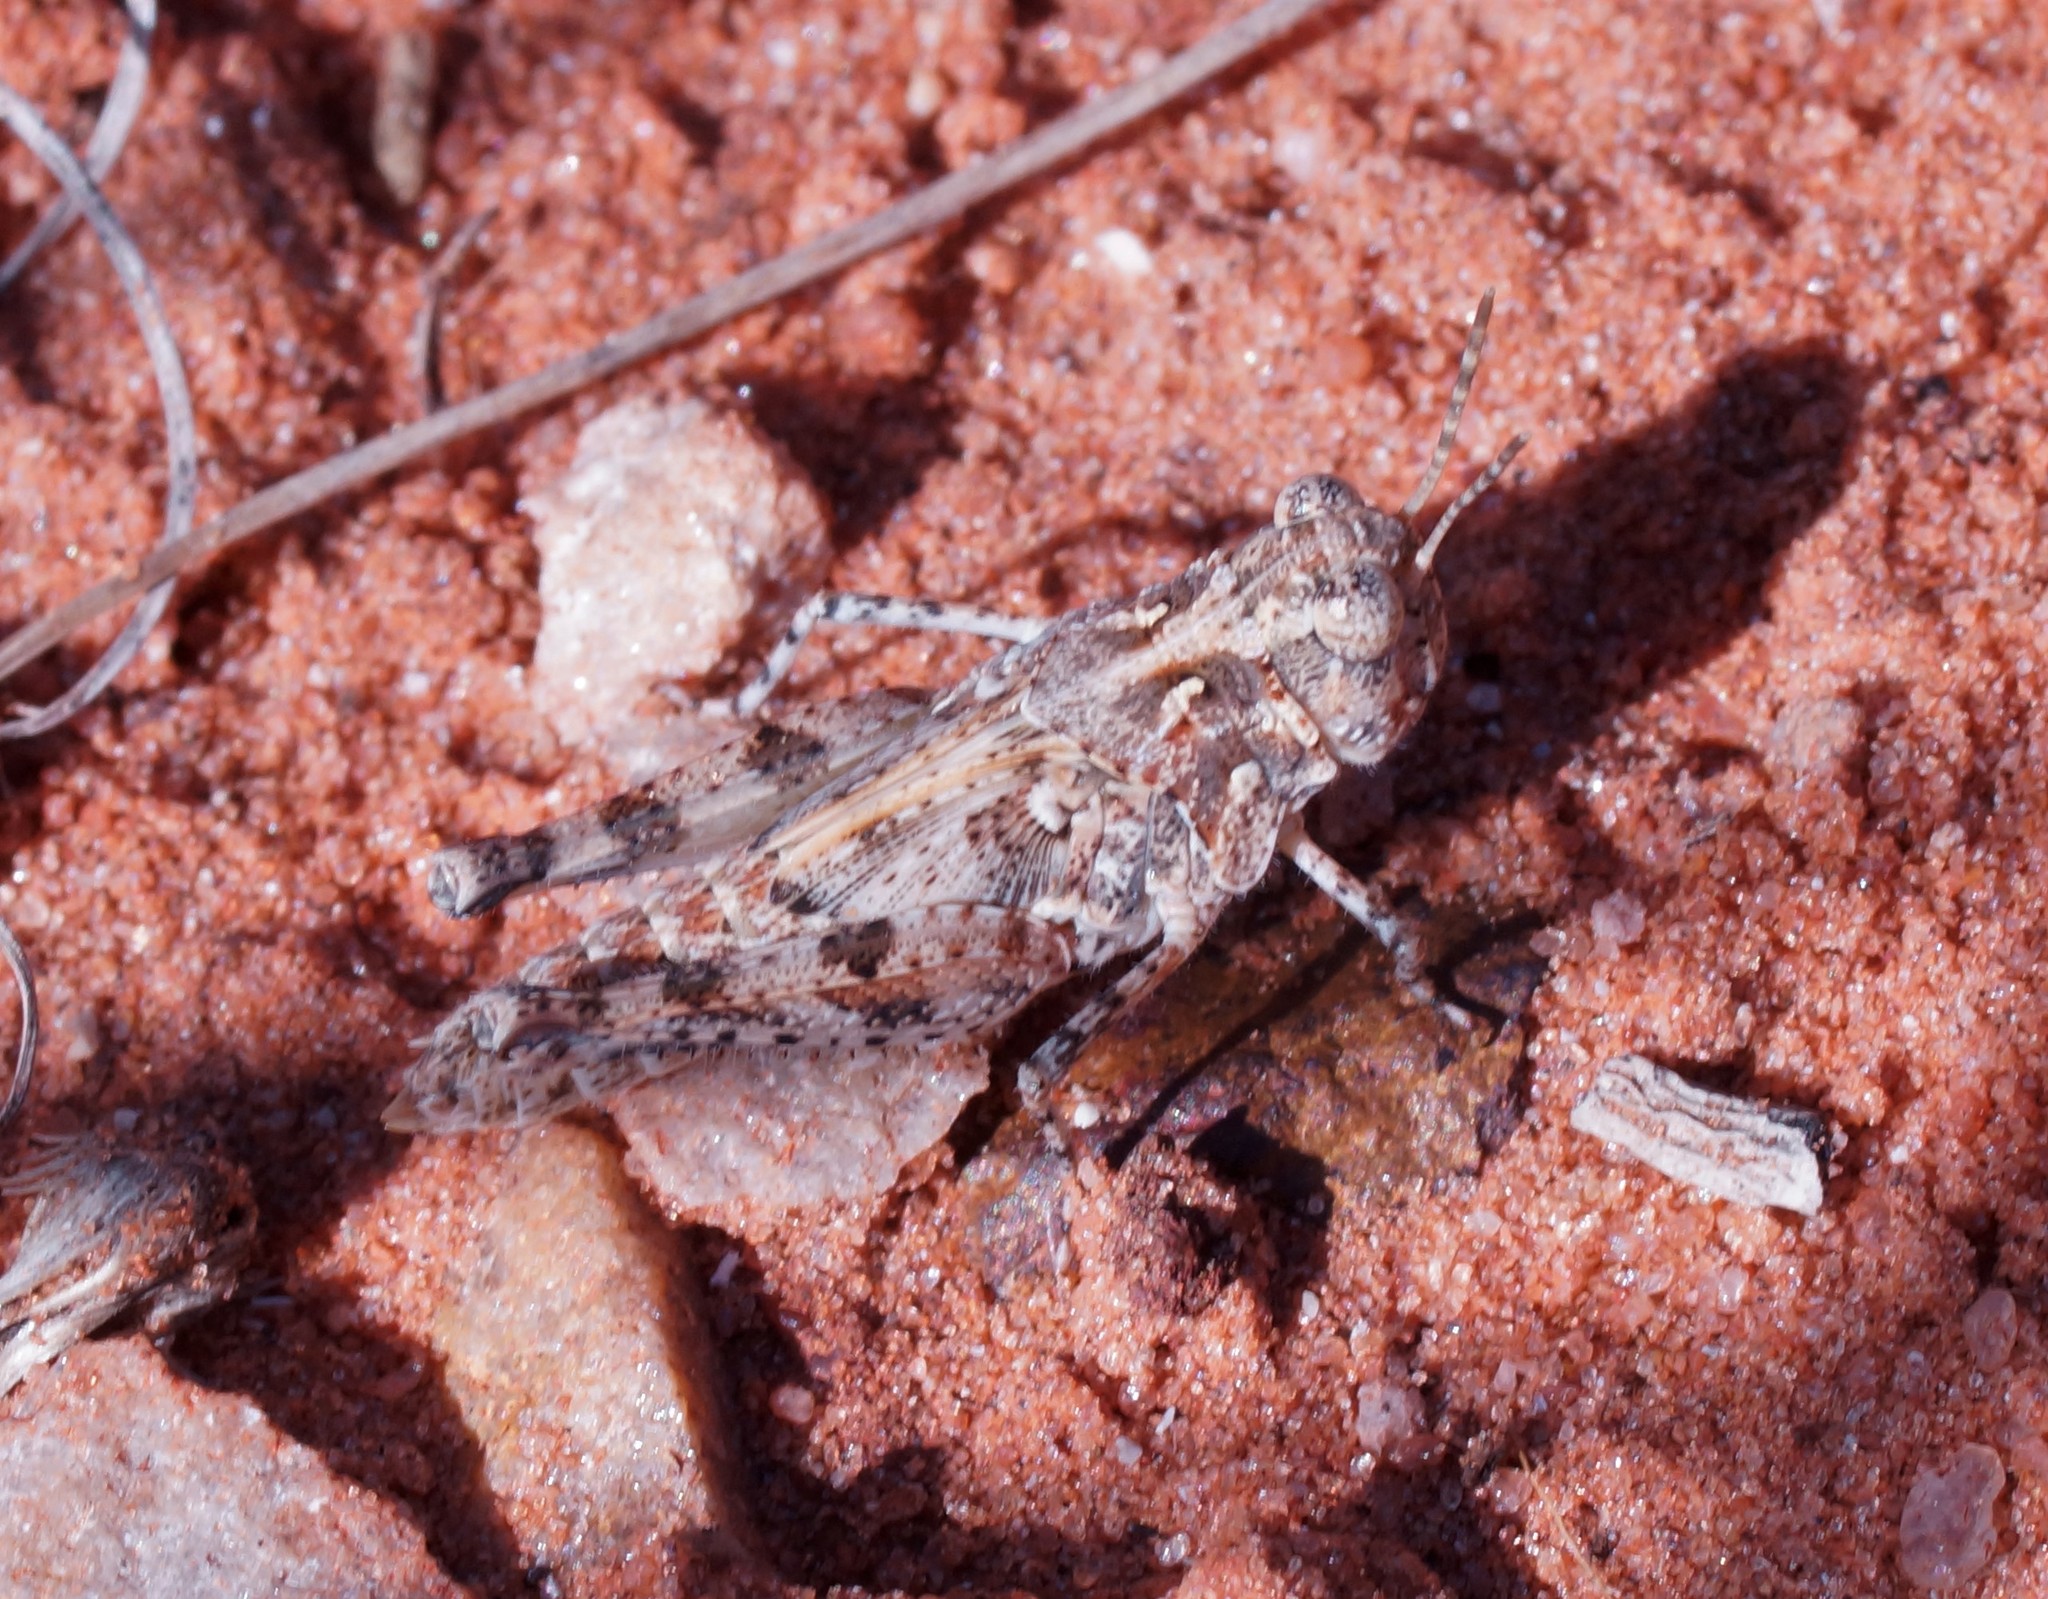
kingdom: Animalia
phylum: Arthropoda
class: Insecta
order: Orthoptera
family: Acrididae
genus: Pycnostictus
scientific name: Pycnostictus seriatus
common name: Common bandwing
